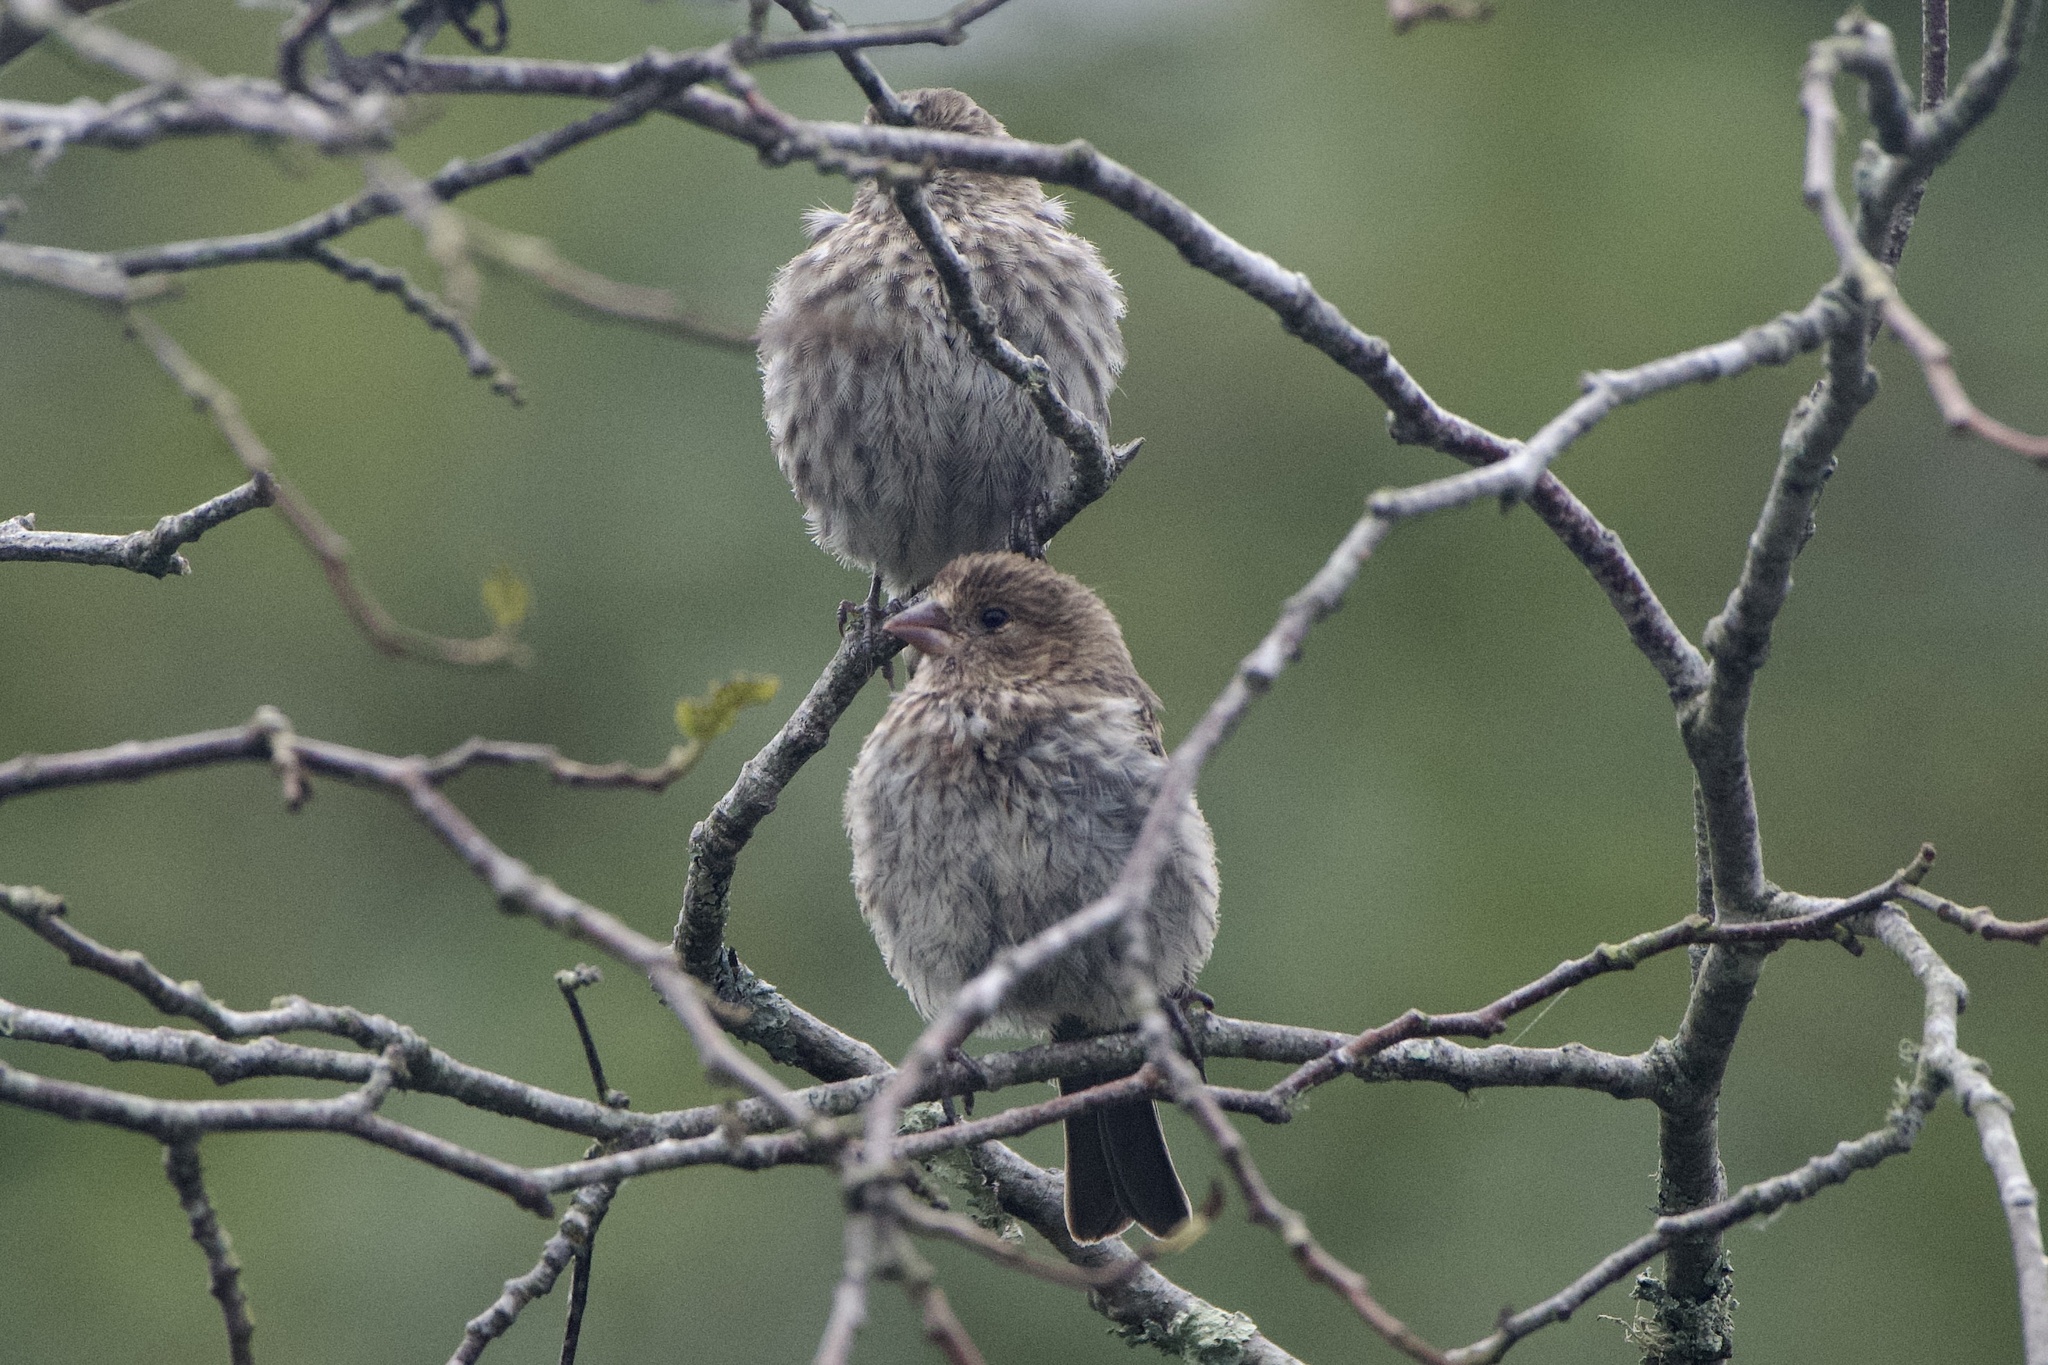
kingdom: Animalia
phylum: Chordata
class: Aves
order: Passeriformes
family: Fringillidae
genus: Haemorhous
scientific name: Haemorhous mexicanus
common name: House finch
